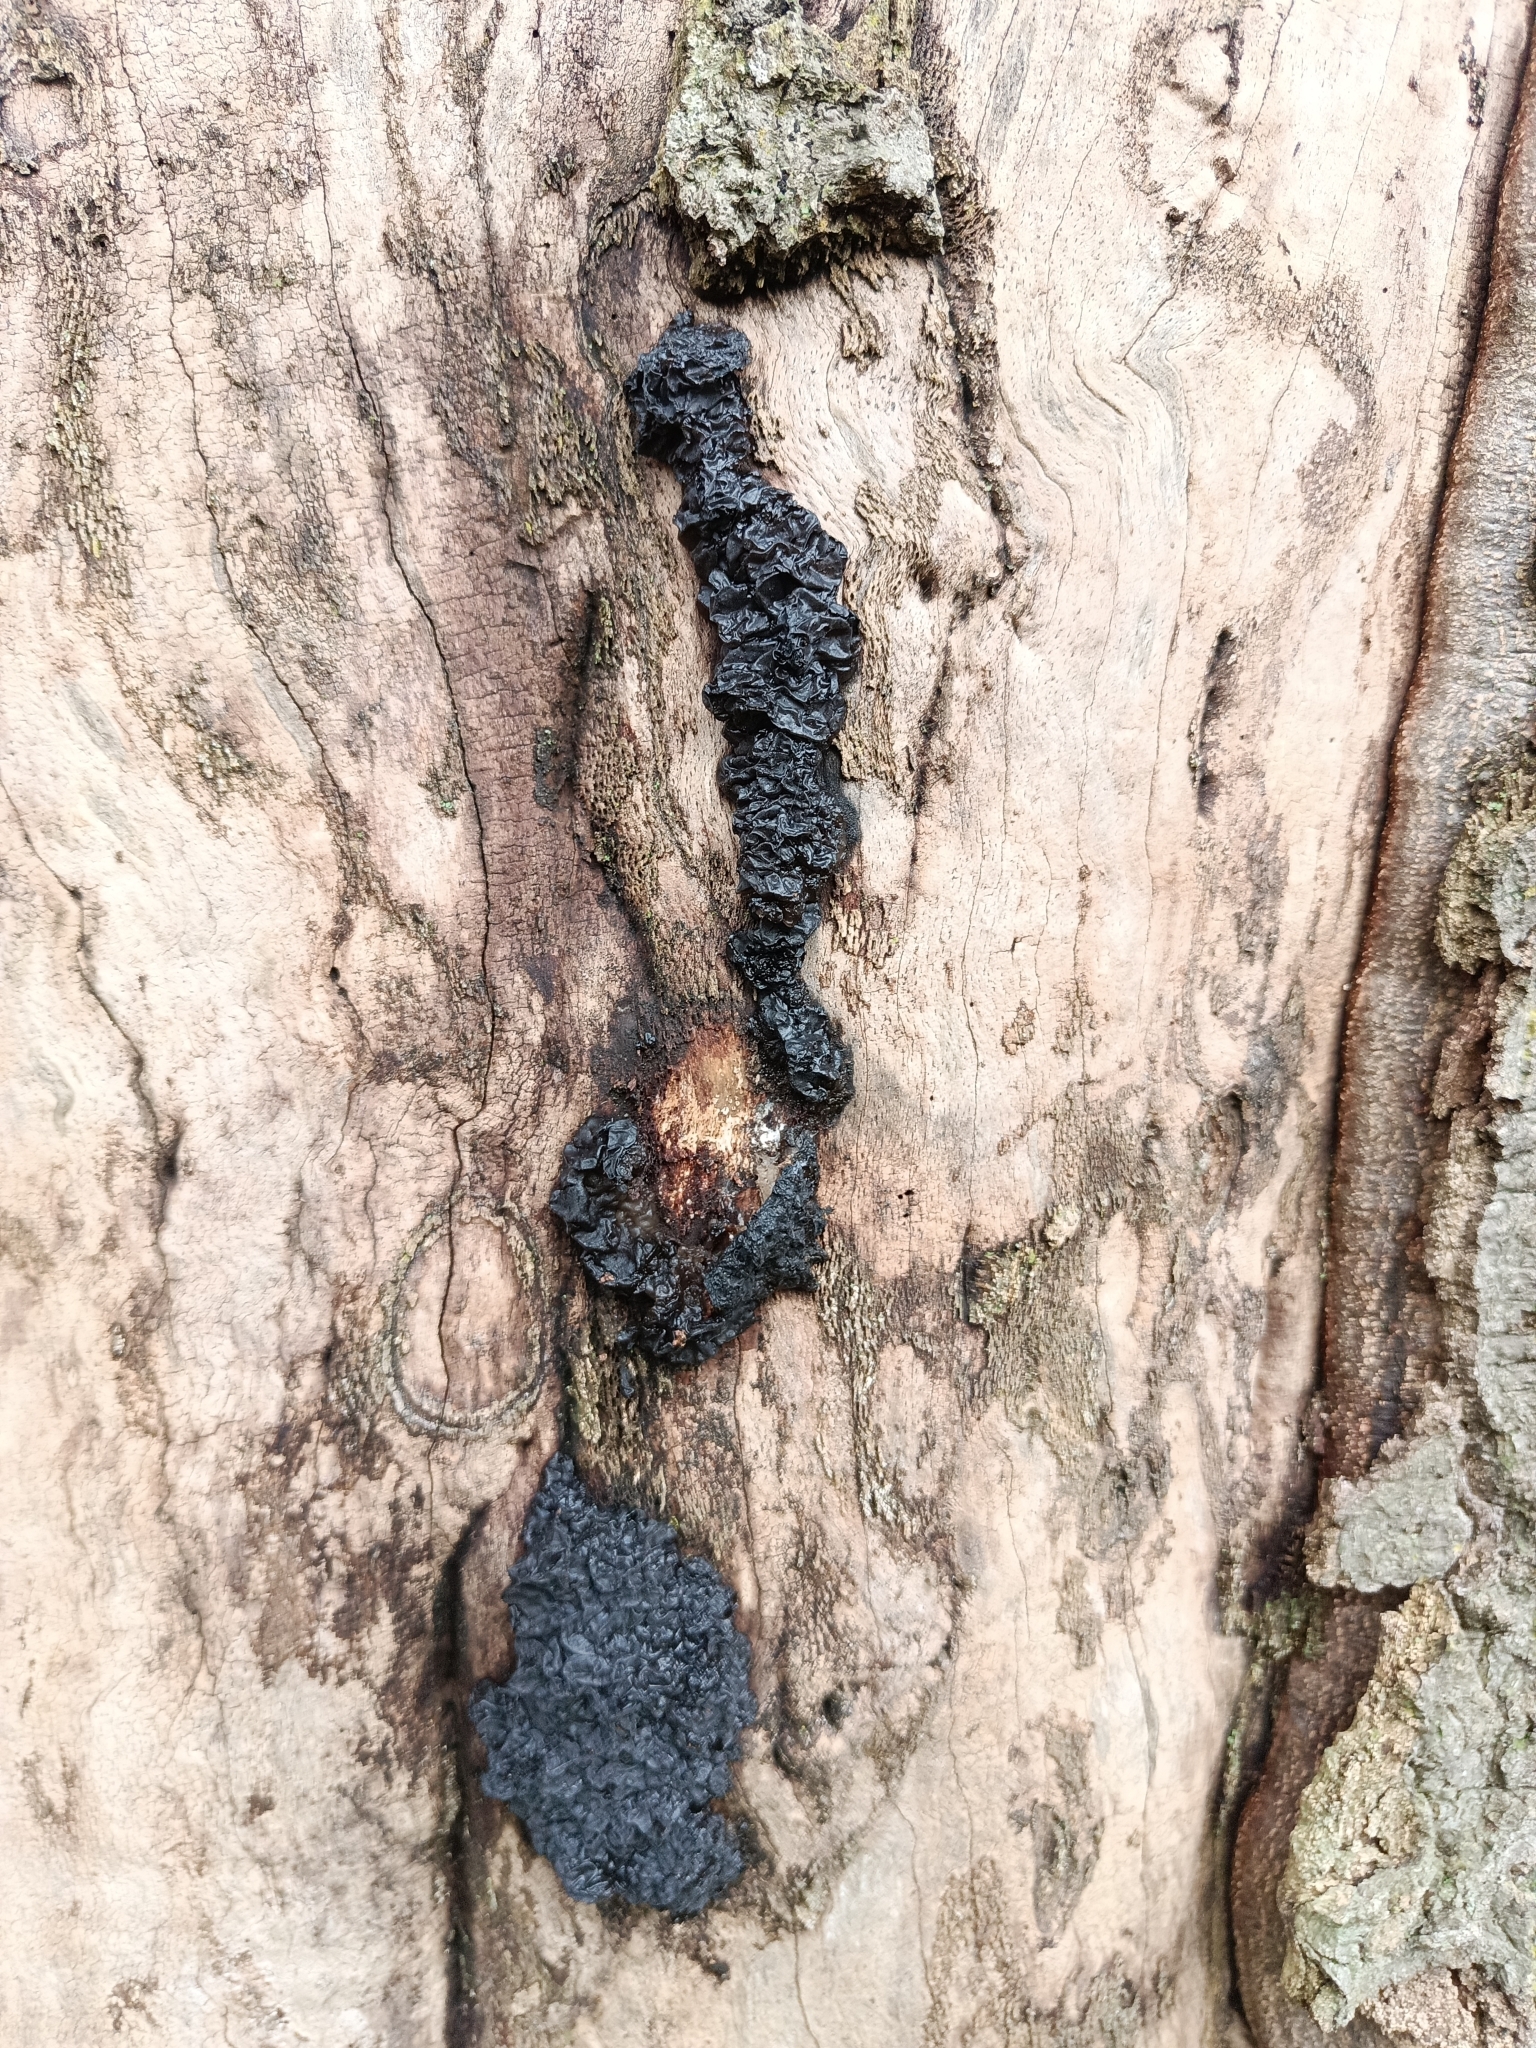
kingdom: Fungi
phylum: Basidiomycota
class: Agaricomycetes
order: Auriculariales
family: Auriculariaceae
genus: Exidia
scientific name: Exidia nigricans
